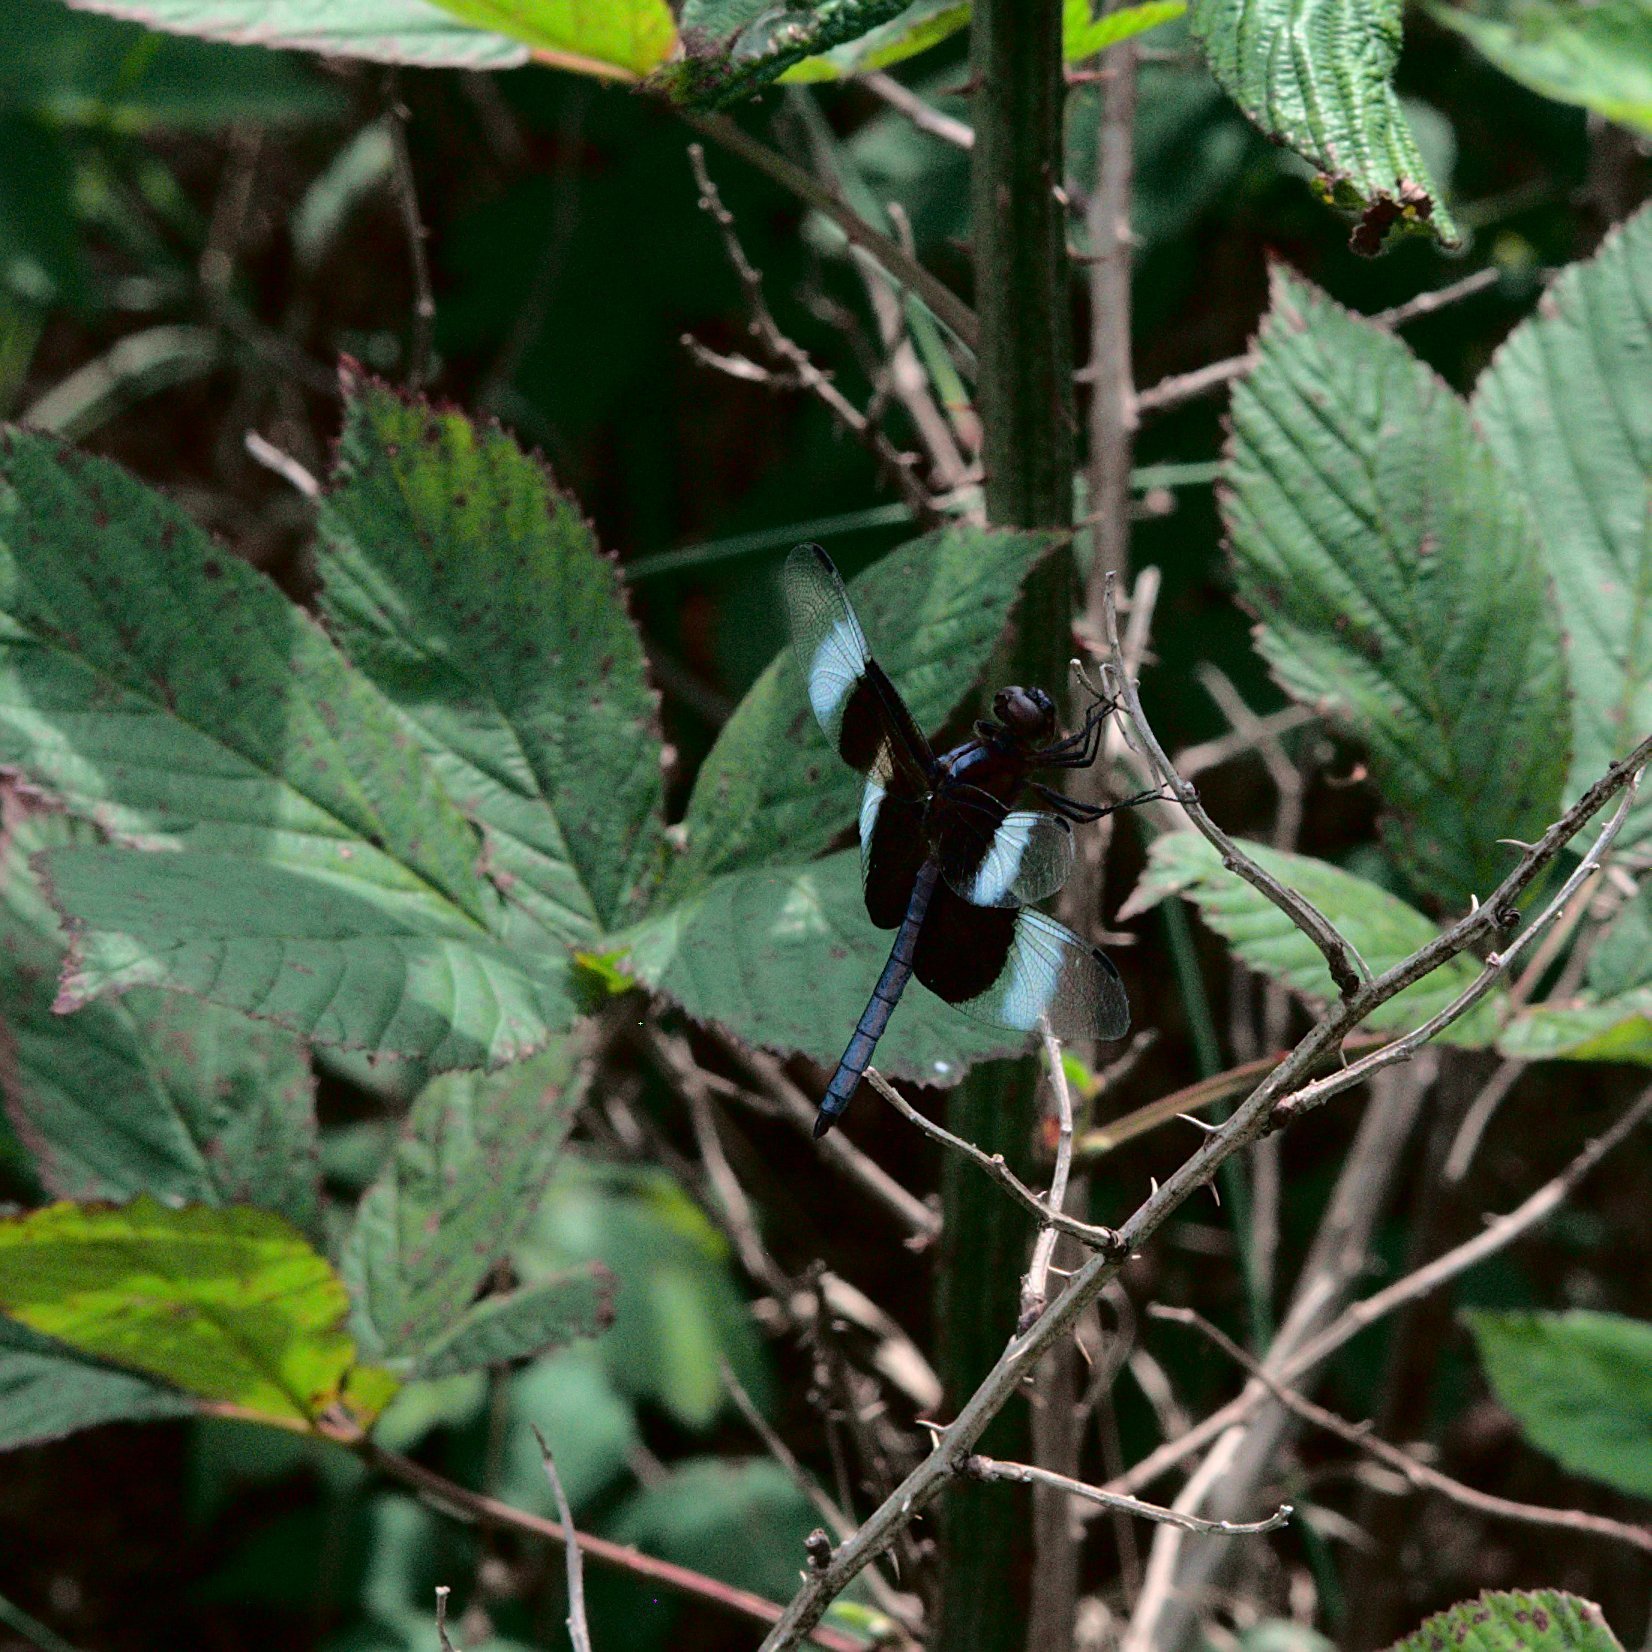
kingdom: Animalia
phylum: Arthropoda
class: Insecta
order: Odonata
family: Libellulidae
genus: Libellula
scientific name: Libellula luctuosa
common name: Widow skimmer
